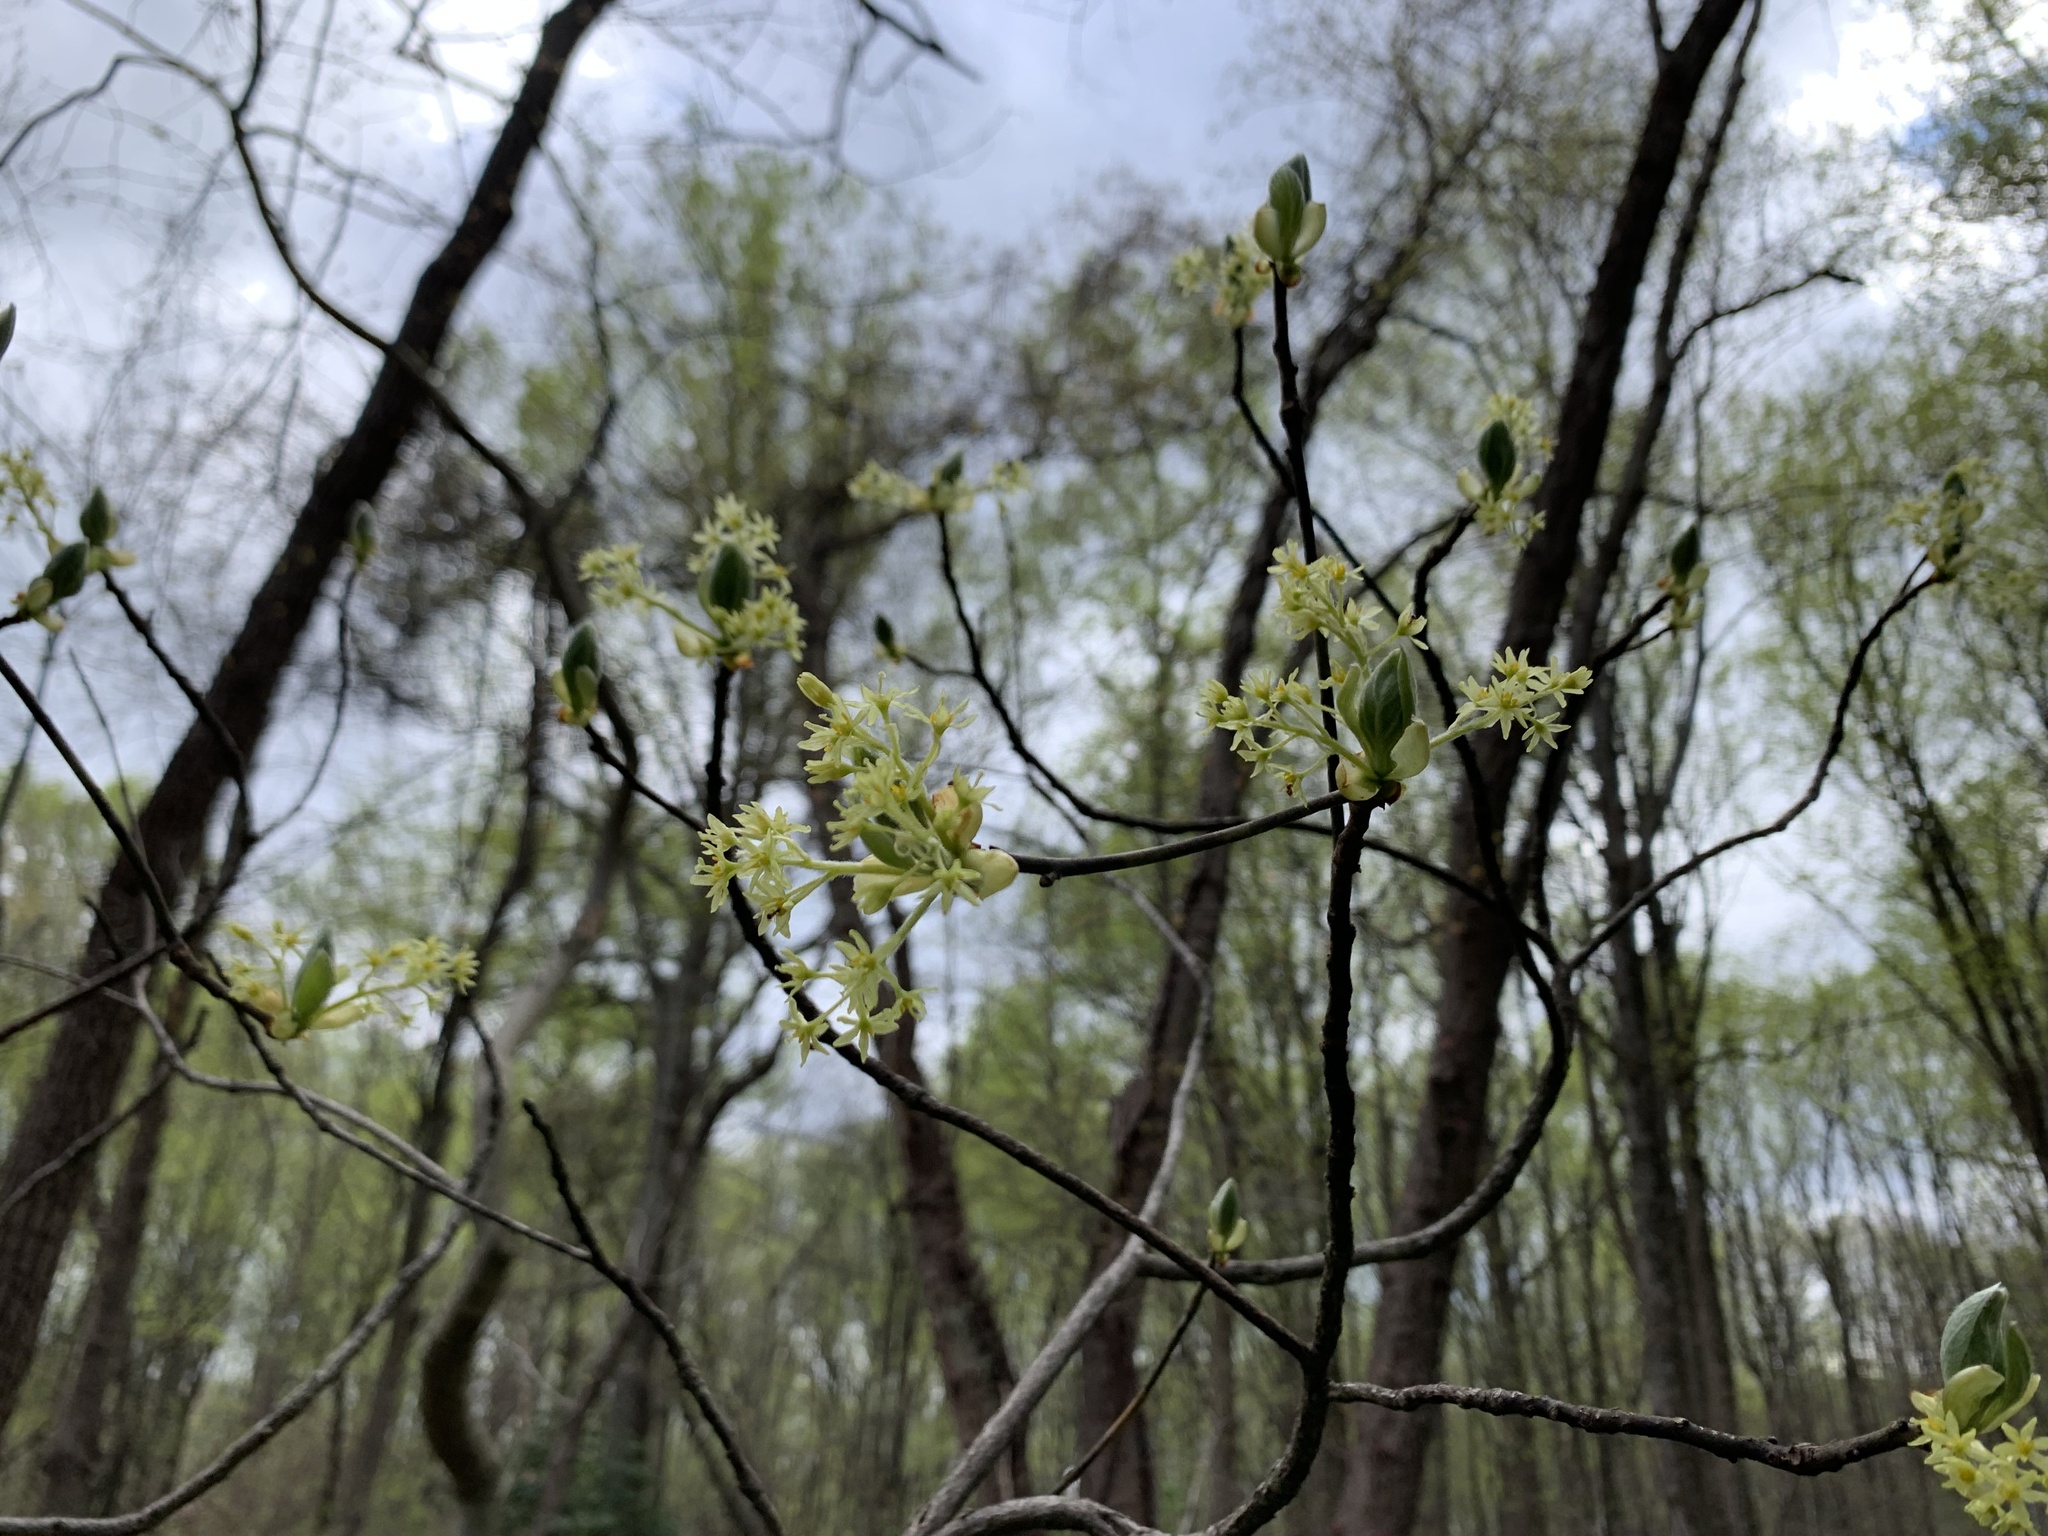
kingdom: Plantae
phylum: Tracheophyta
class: Magnoliopsida
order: Laurales
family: Lauraceae
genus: Sassafras
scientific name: Sassafras albidum
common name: Sassafras
